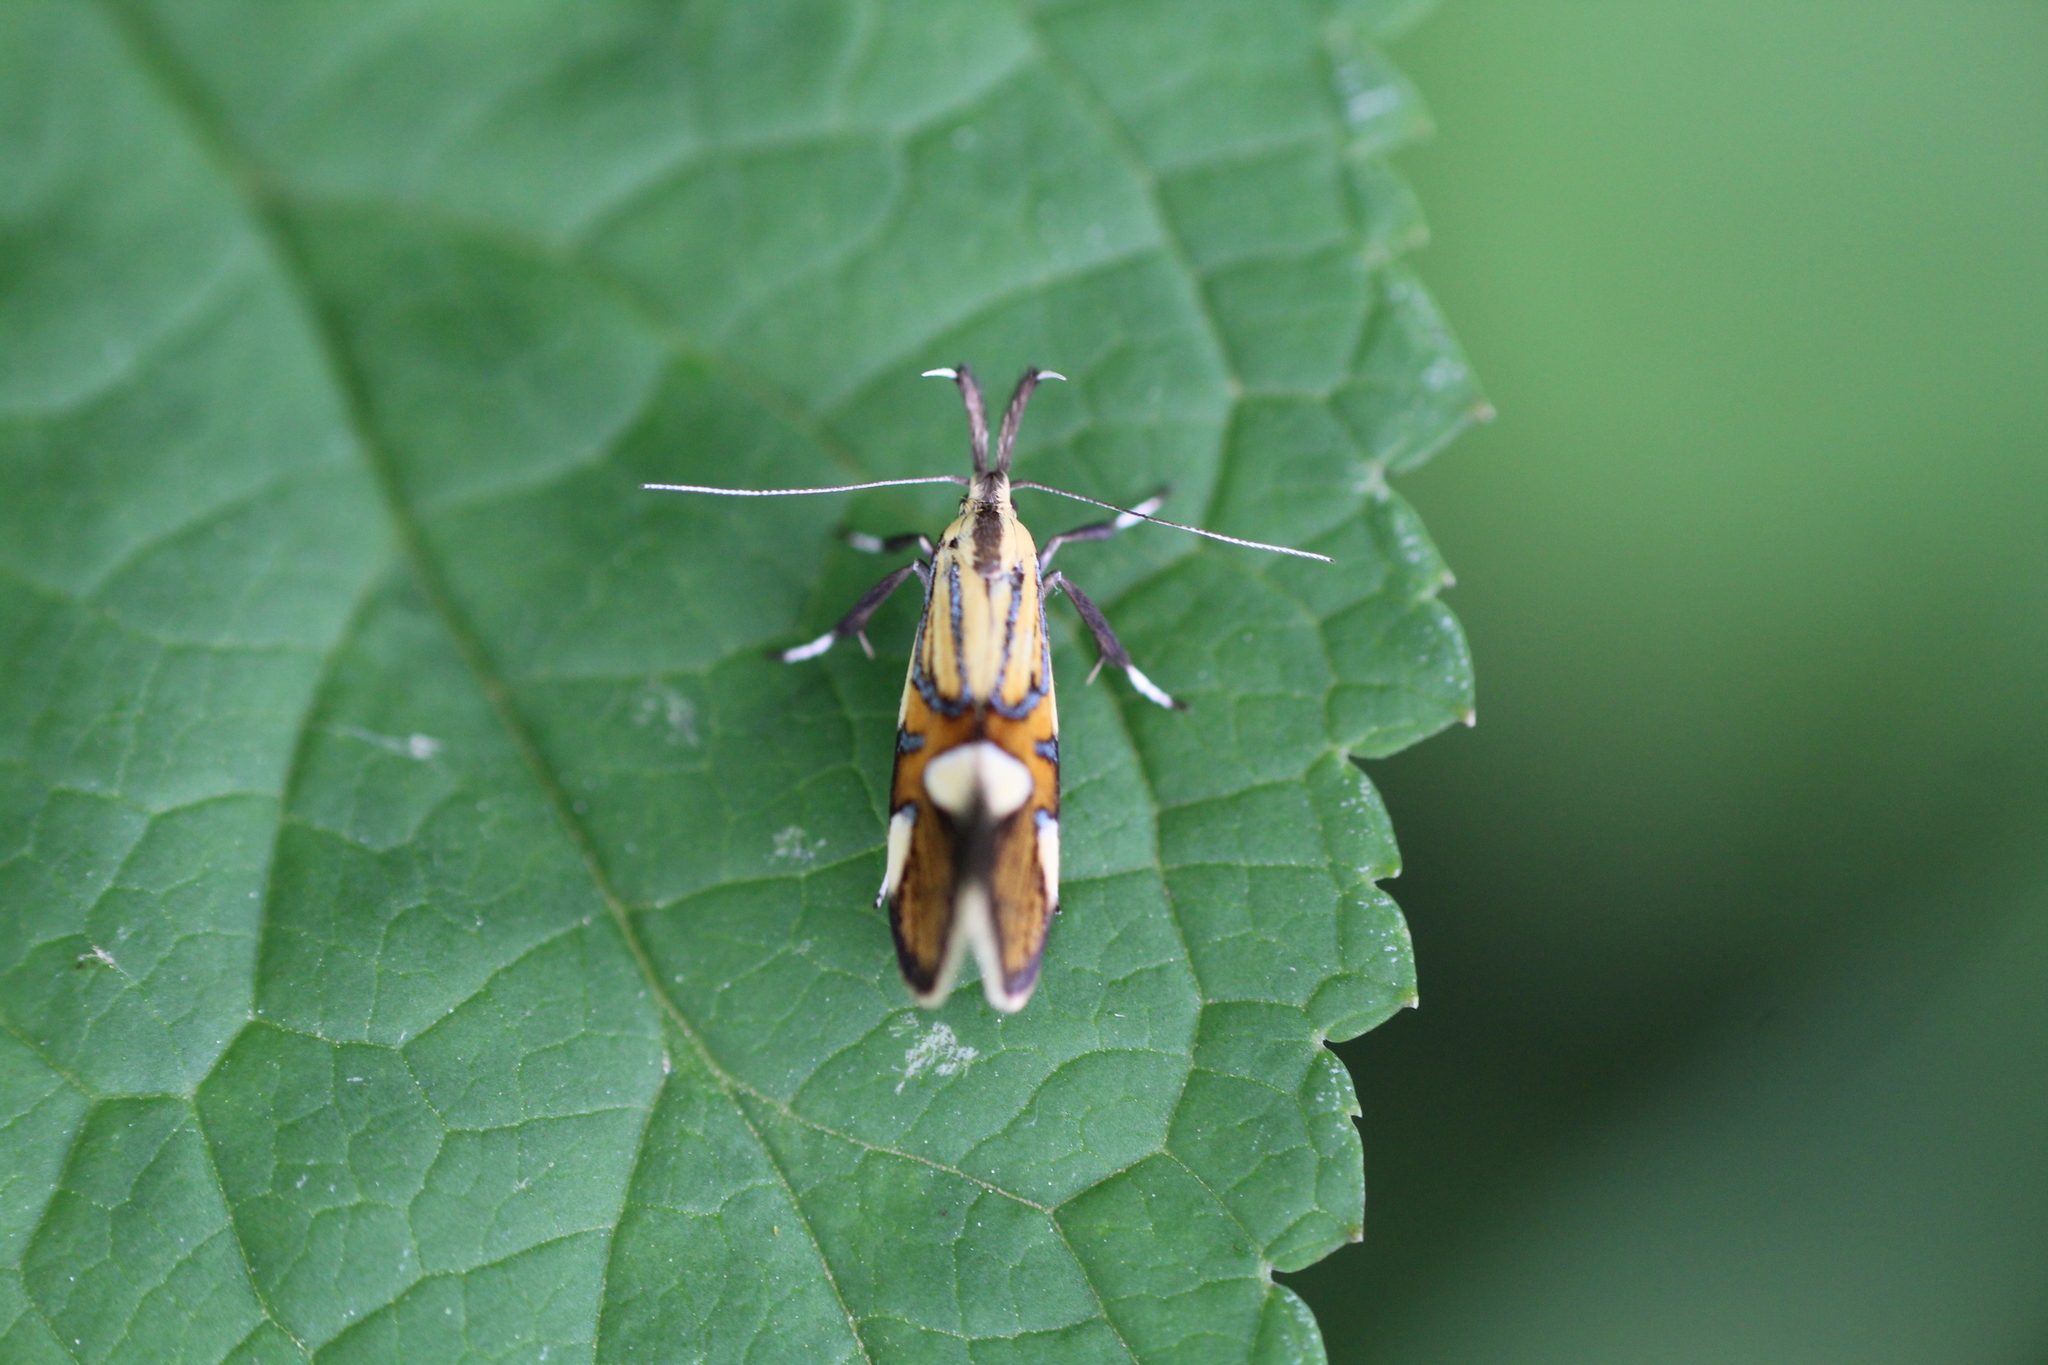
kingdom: Animalia
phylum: Arthropoda
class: Insecta
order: Lepidoptera
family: Oecophoridae
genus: Oecophora
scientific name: Oecophora Alabonia geoffrella
